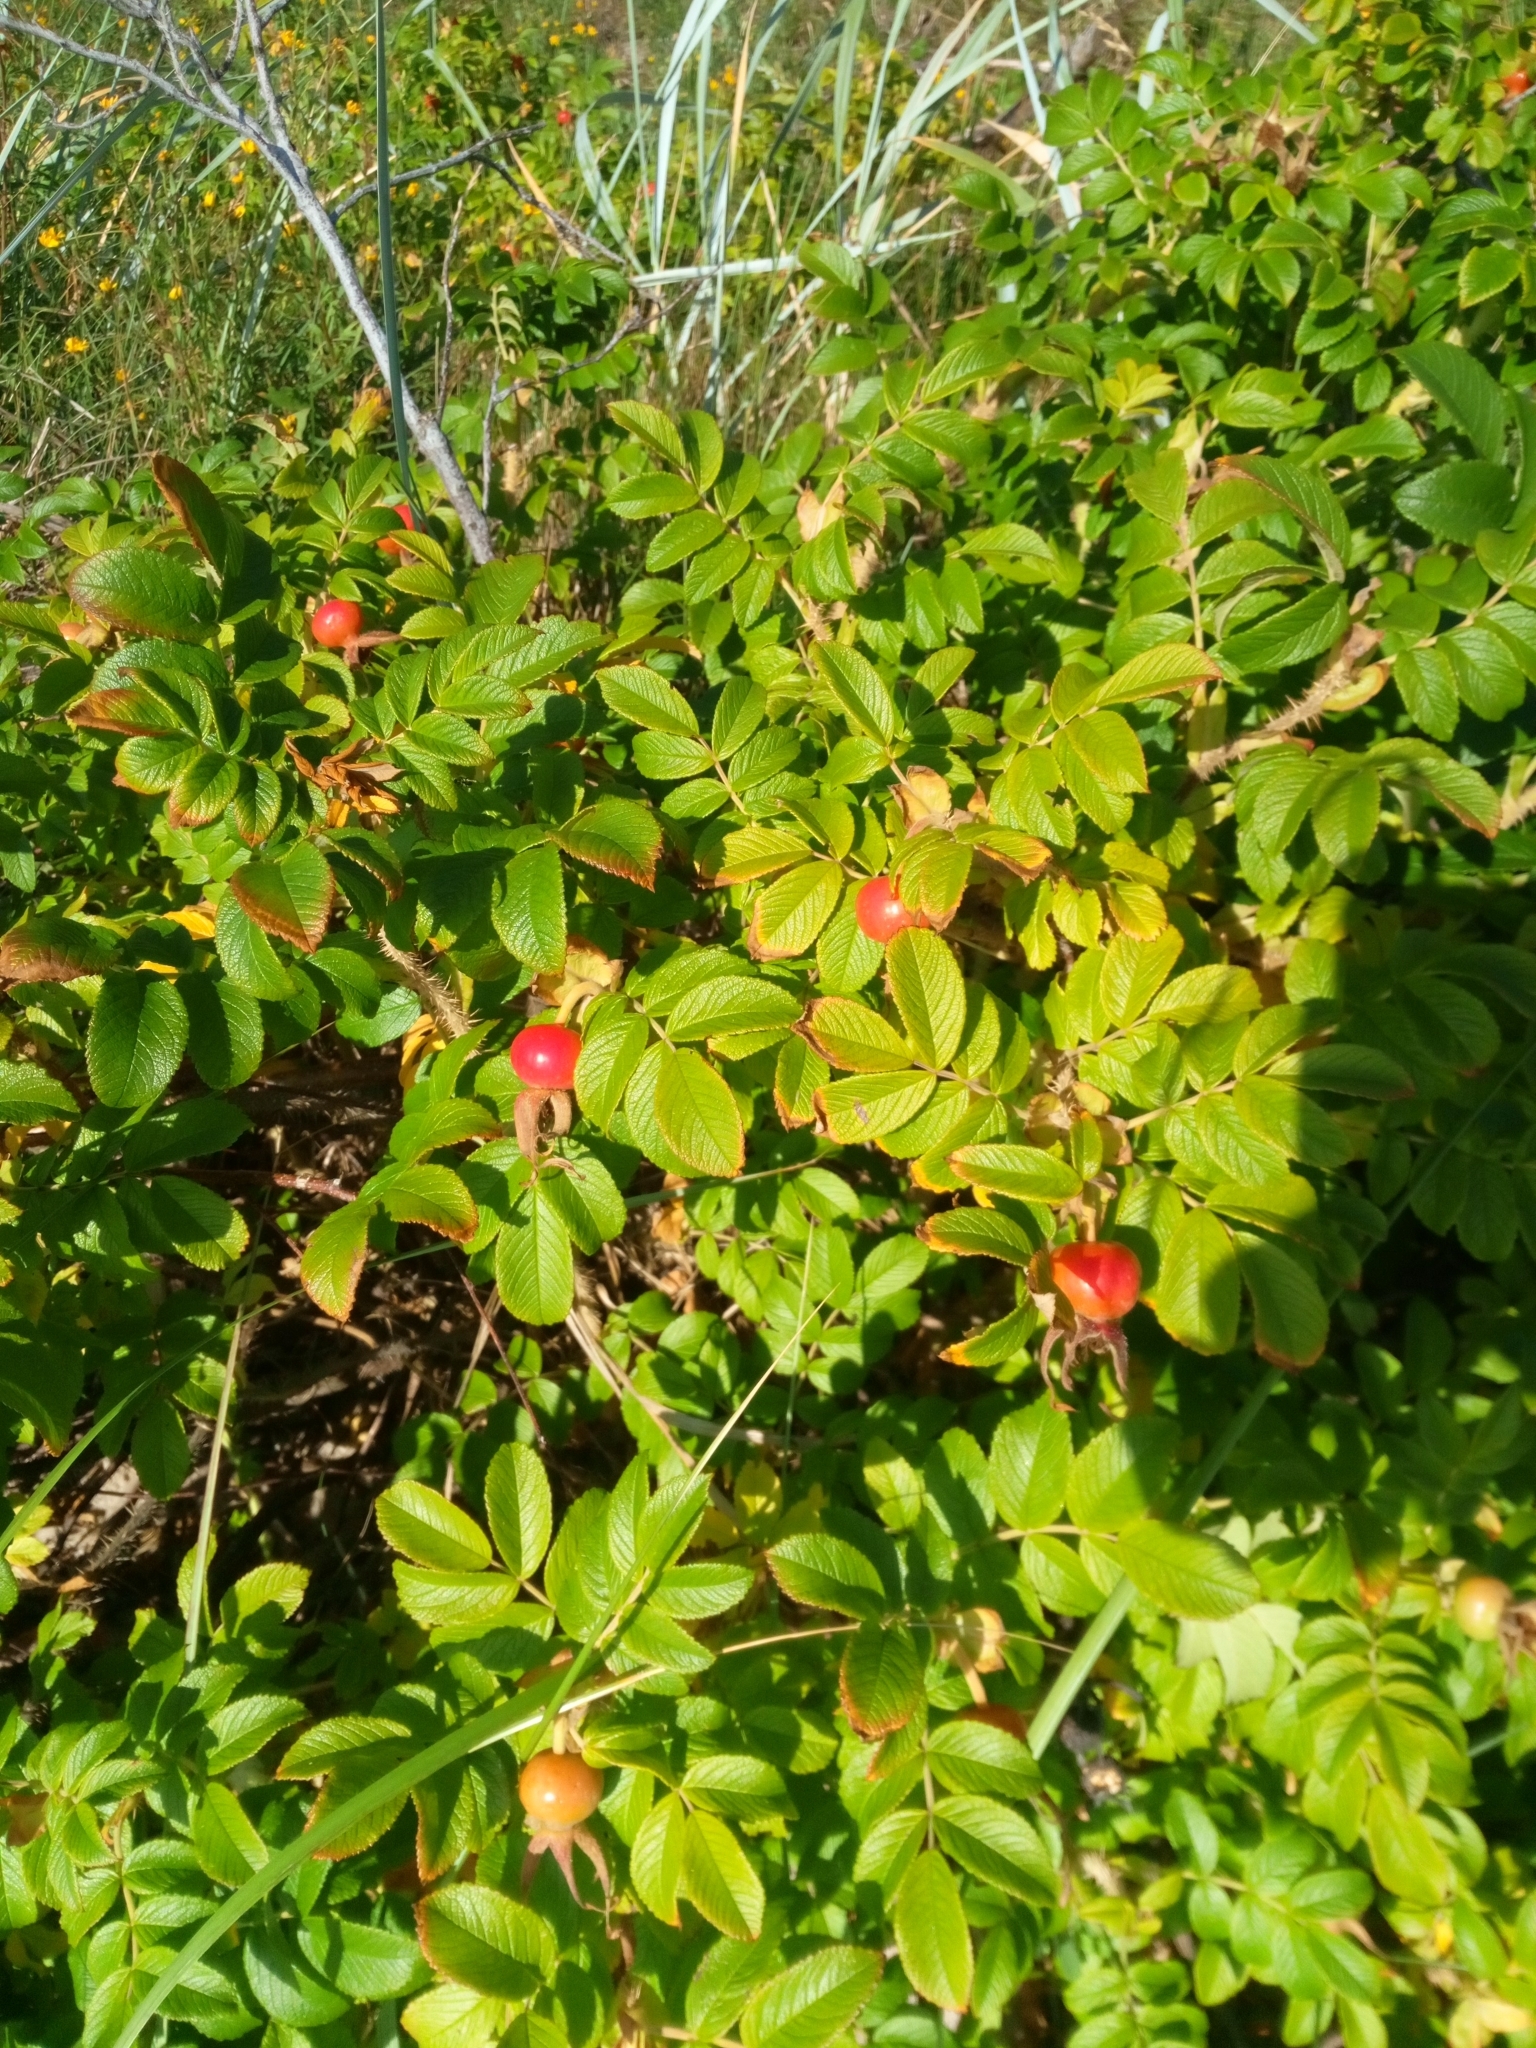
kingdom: Plantae
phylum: Tracheophyta
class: Magnoliopsida
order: Rosales
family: Rosaceae
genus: Rosa
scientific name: Rosa rugosa
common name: Japanese rose
